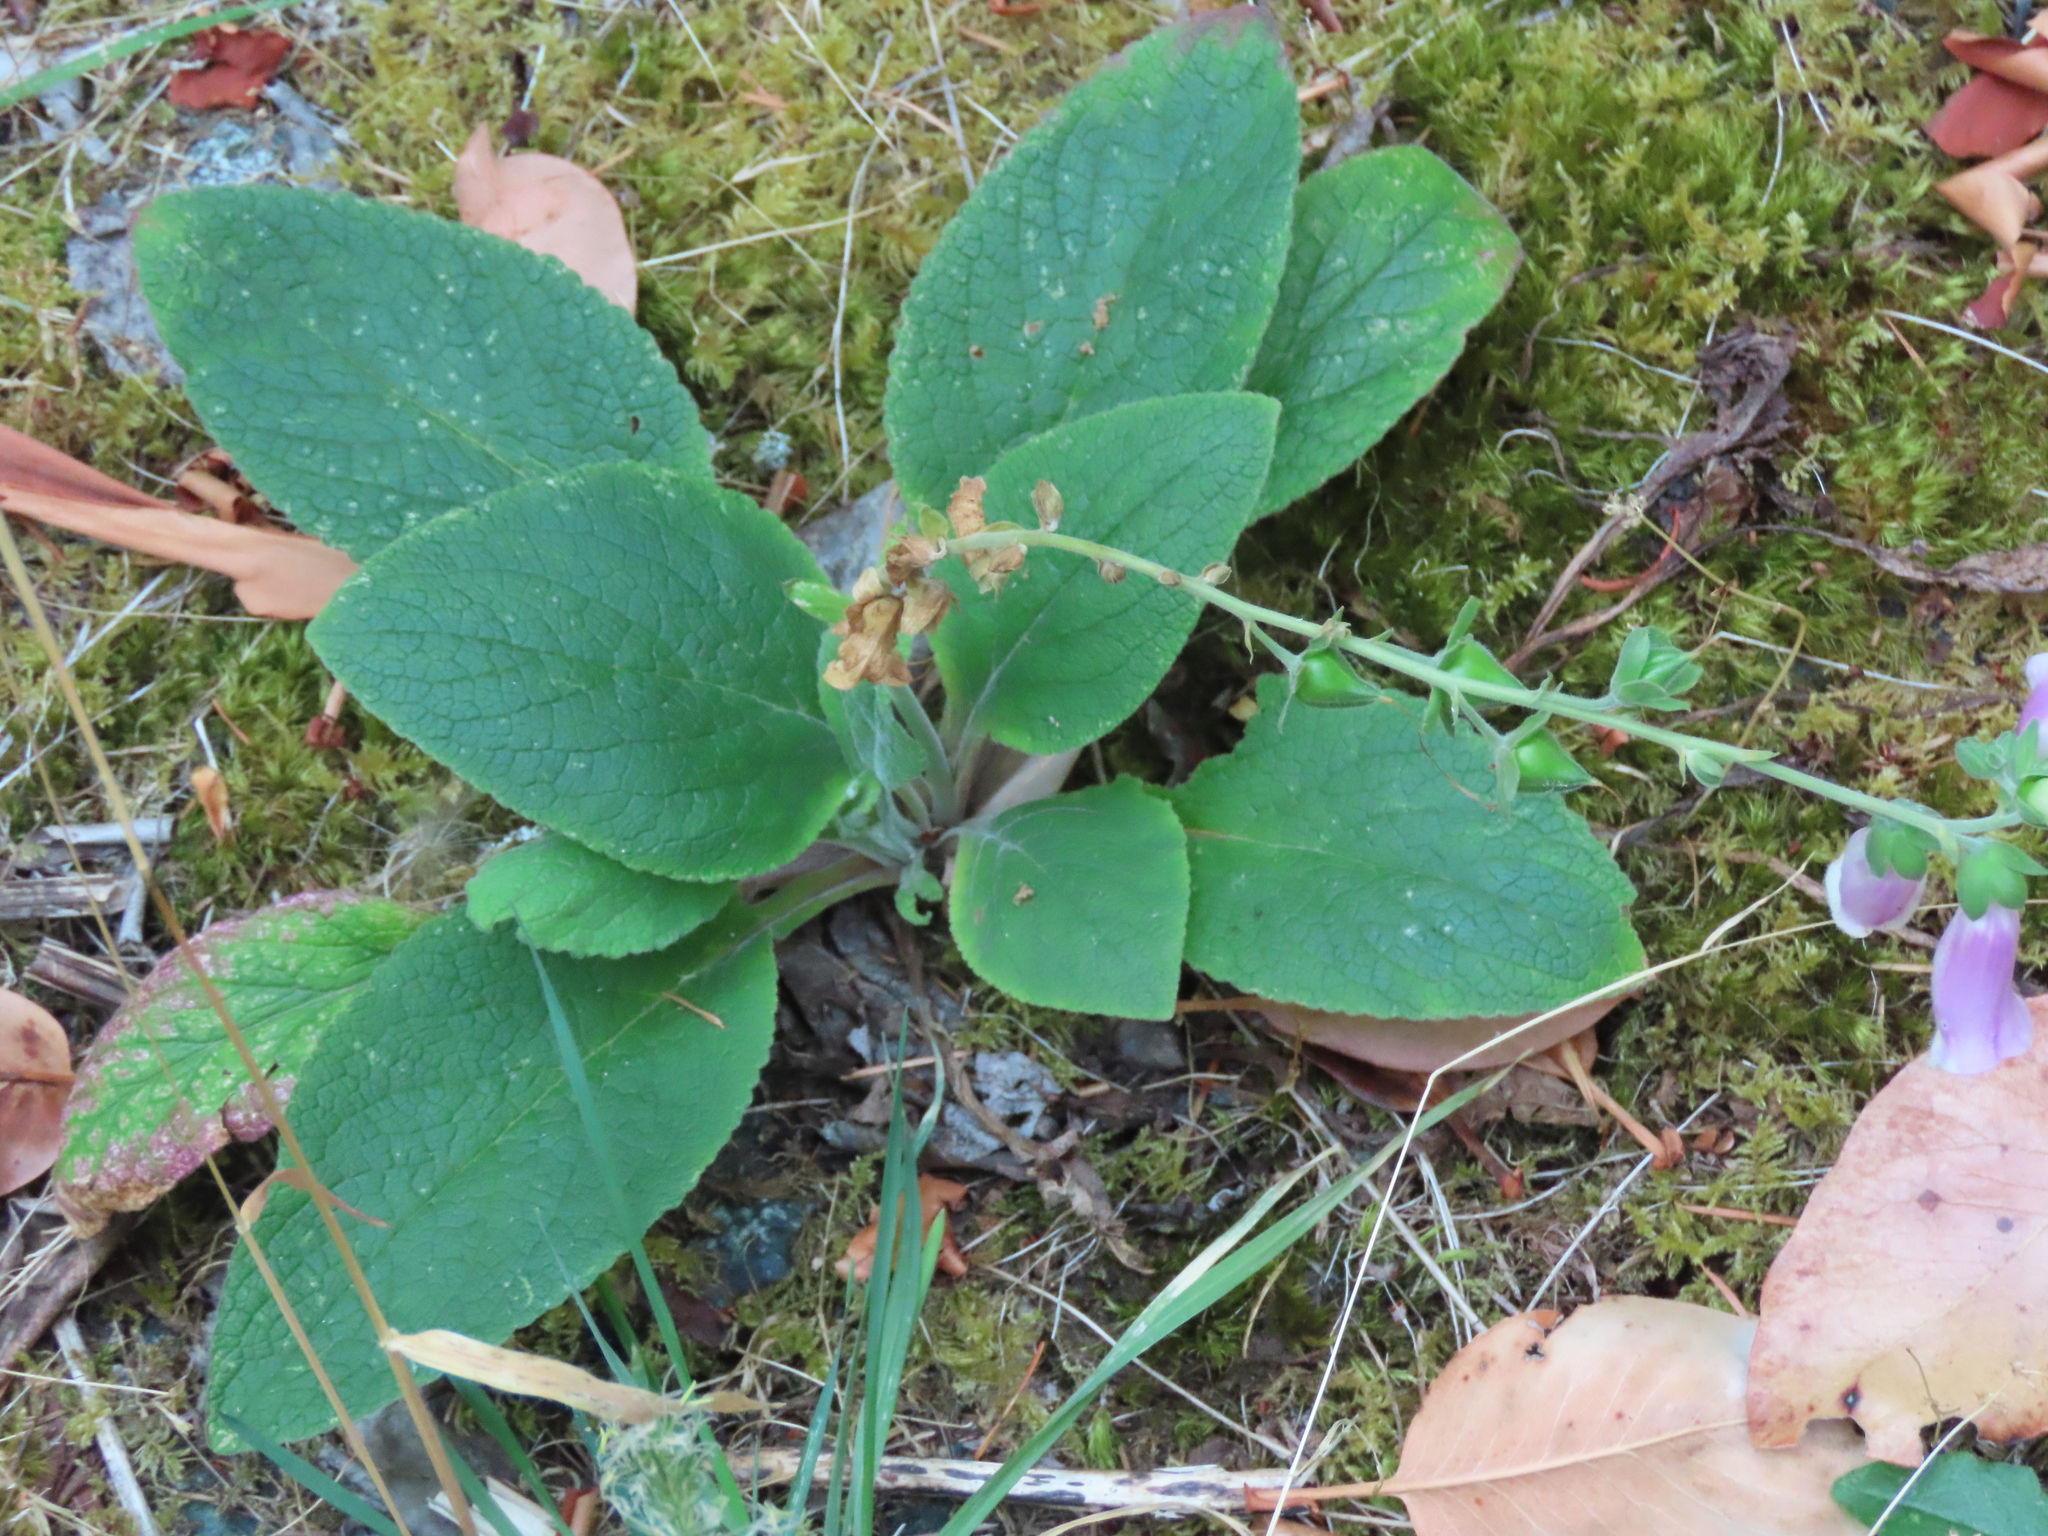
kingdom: Plantae
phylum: Tracheophyta
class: Magnoliopsida
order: Lamiales
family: Plantaginaceae
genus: Digitalis
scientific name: Digitalis purpurea
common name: Foxglove
